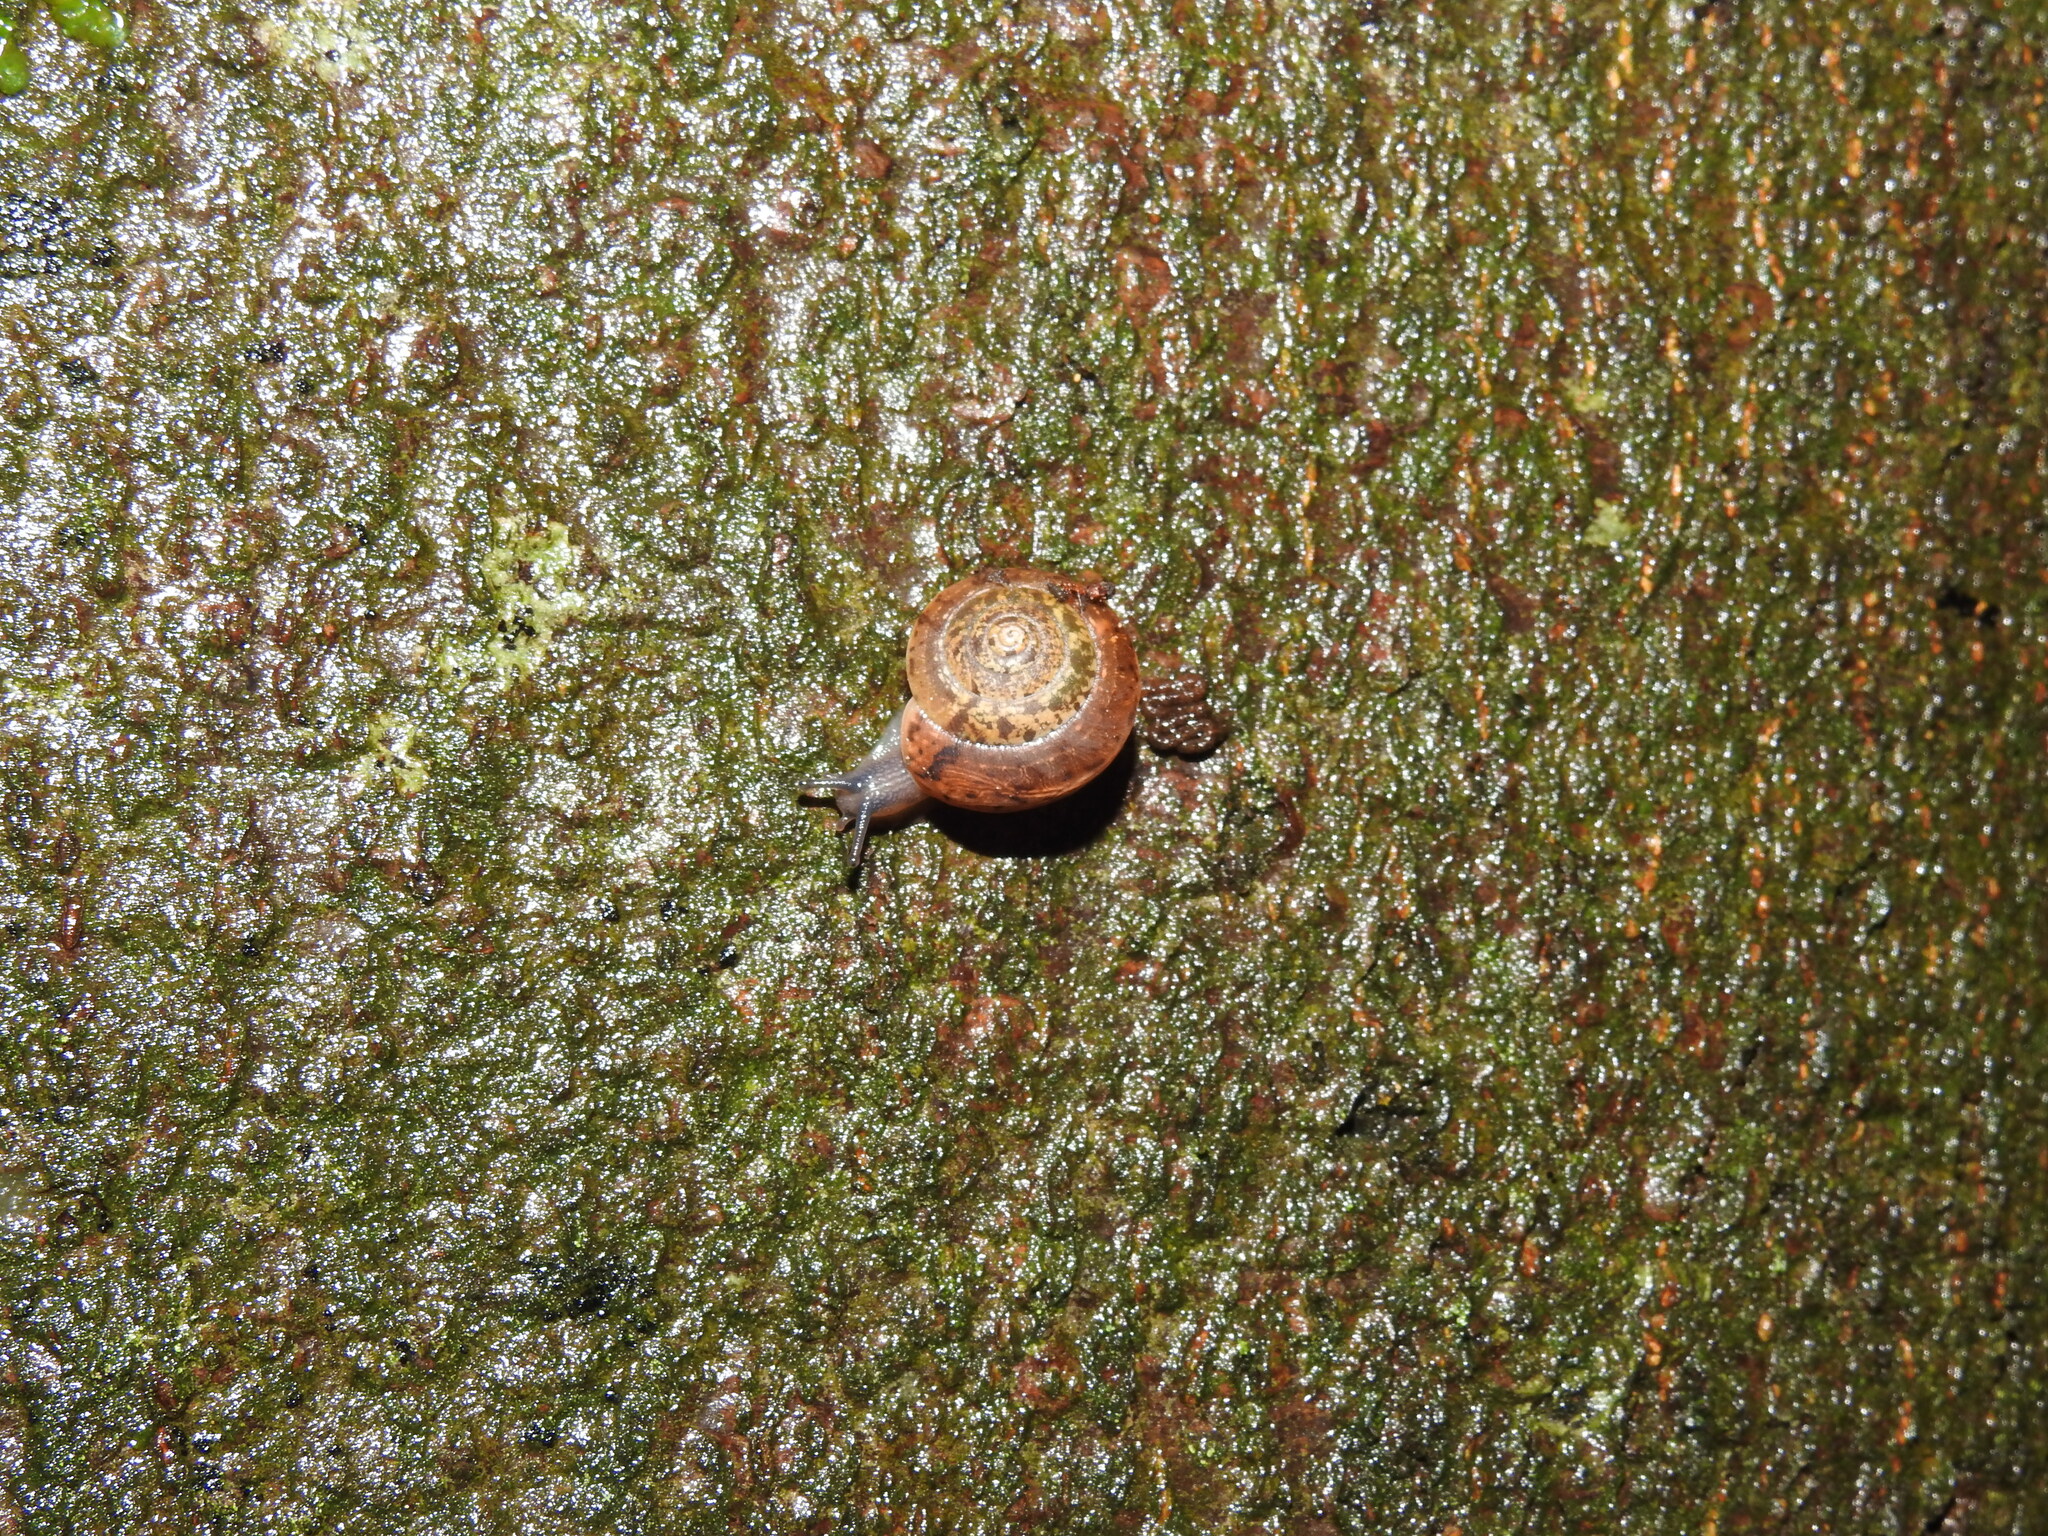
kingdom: Animalia
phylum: Mollusca
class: Gastropoda
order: Stylommatophora
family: Hygromiidae
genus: Monachoides
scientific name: Monachoides incarnatus
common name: Incarnate snail
